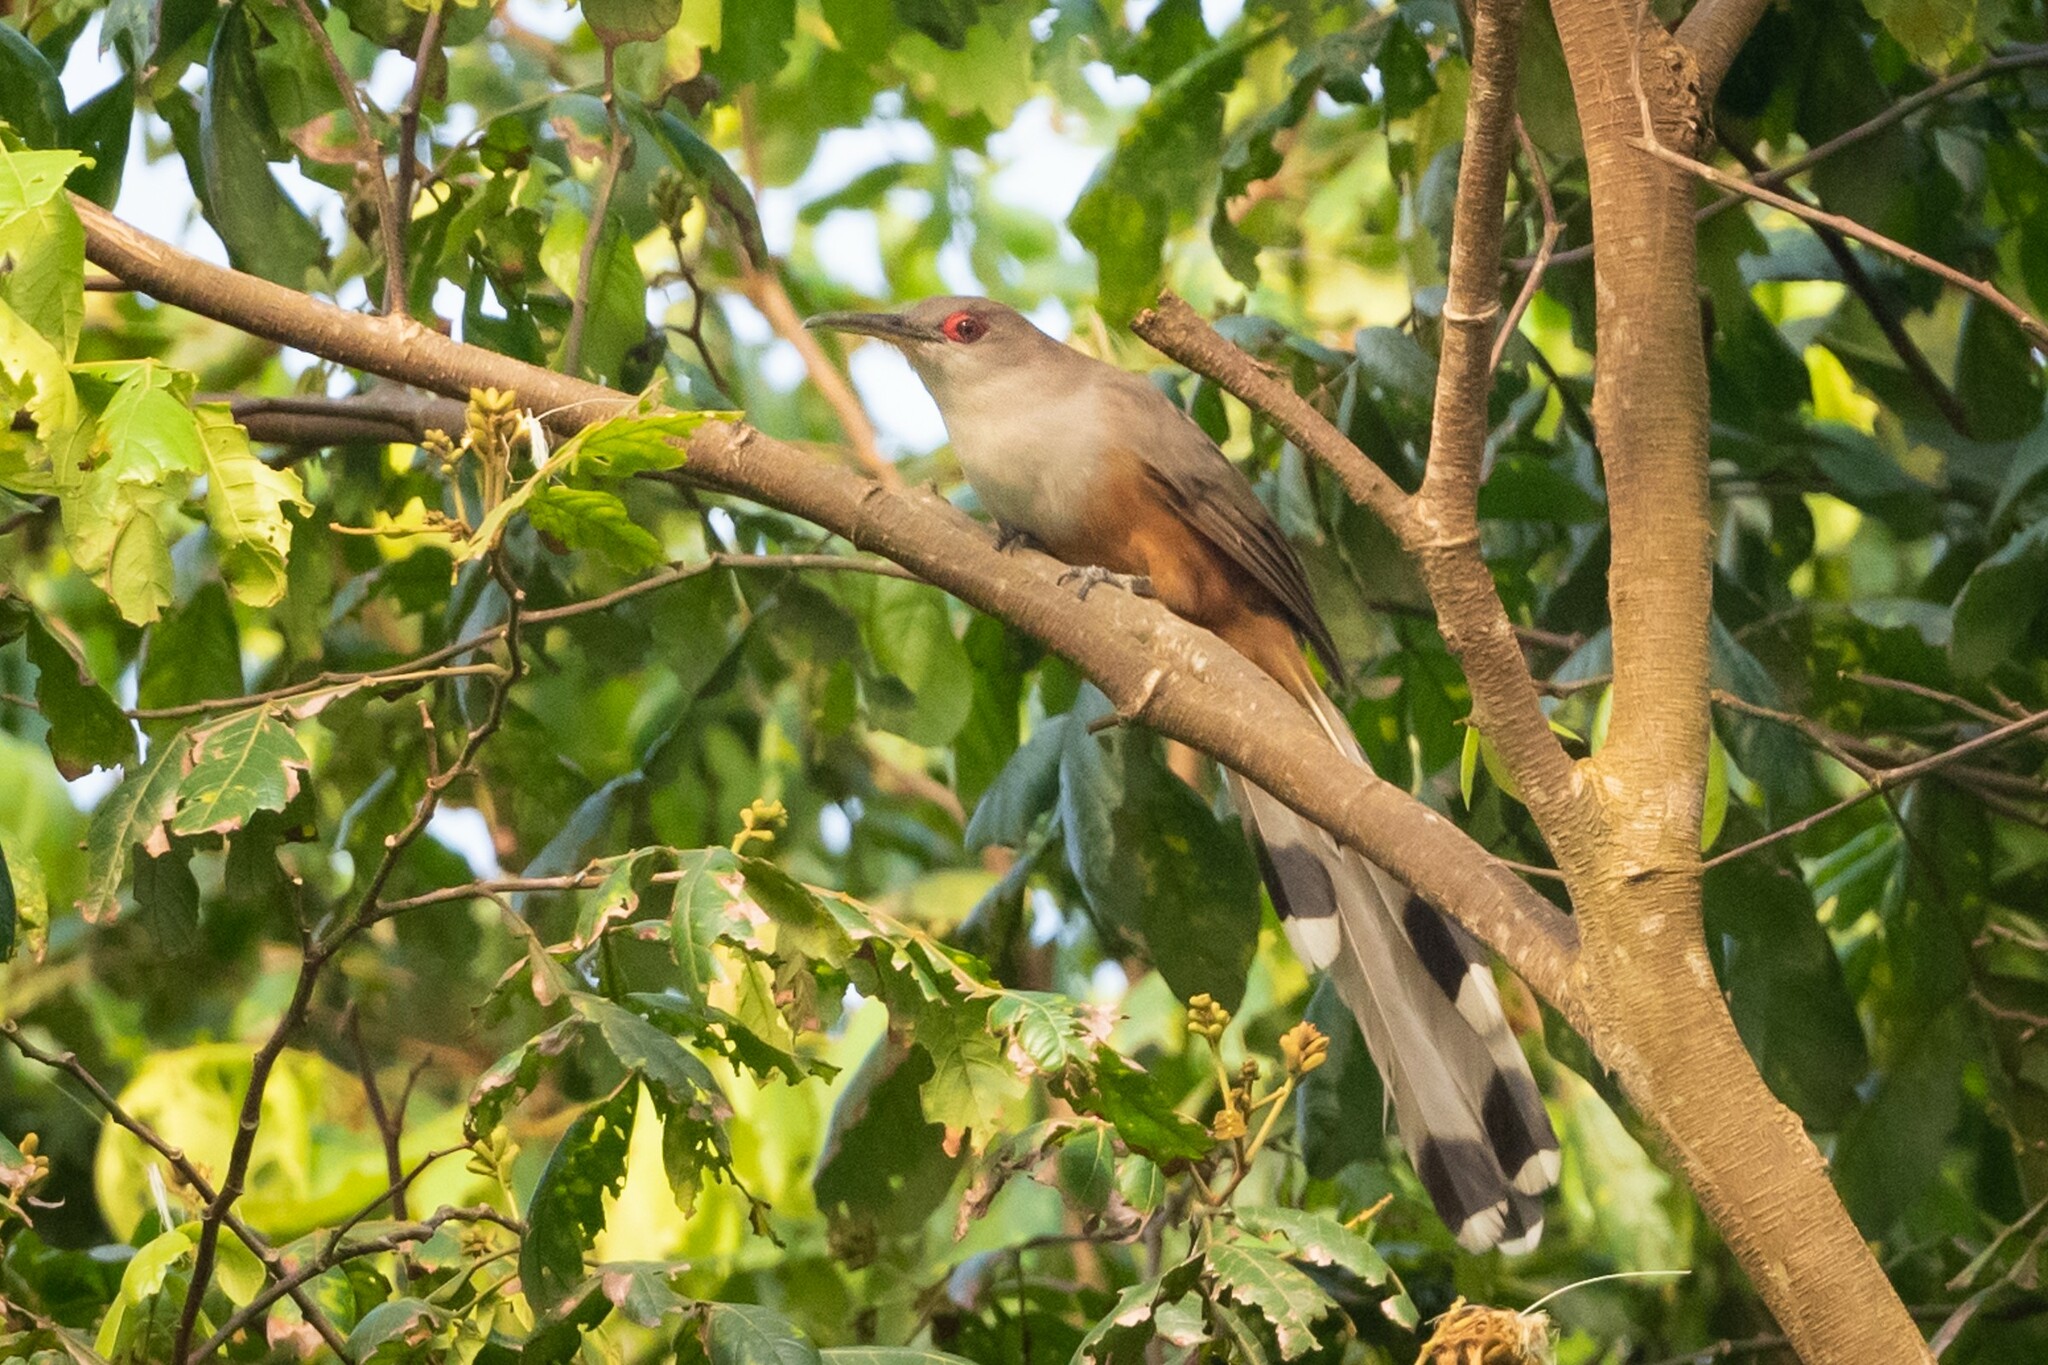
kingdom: Animalia
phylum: Chordata
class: Aves
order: Cuculiformes
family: Cuculidae
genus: Saurothera
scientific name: Saurothera vieilloti
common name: Puerto rican lizard-cuckoo
